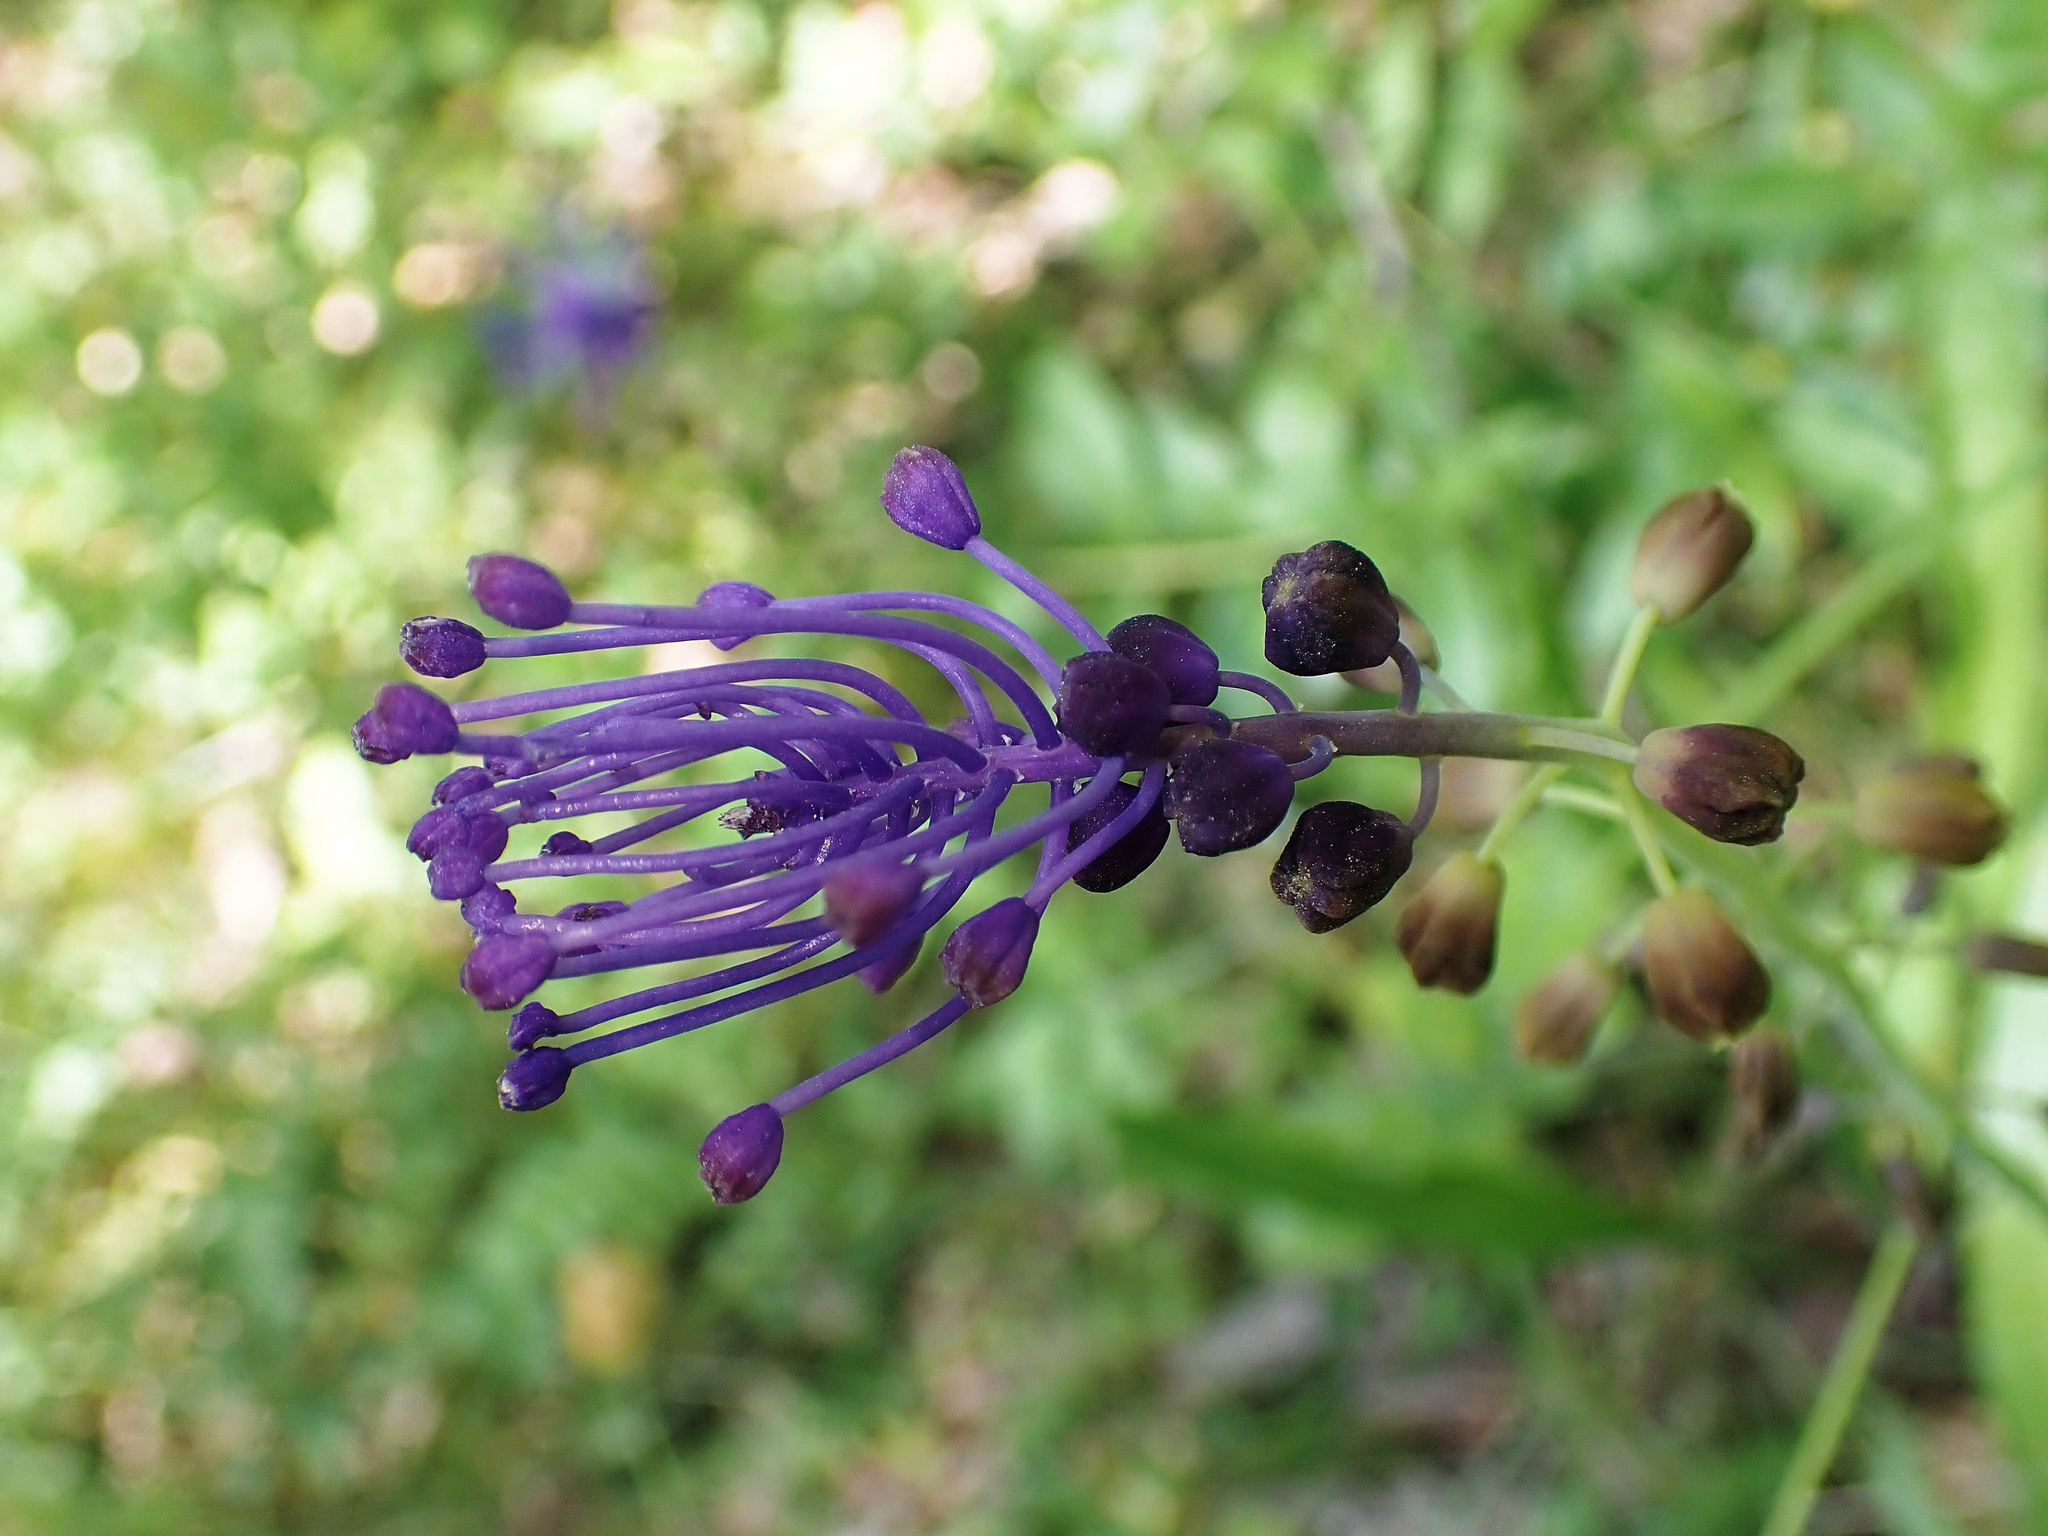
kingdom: Plantae
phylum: Tracheophyta
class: Liliopsida
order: Asparagales
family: Asparagaceae
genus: Muscari
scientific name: Muscari comosum
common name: Tassel hyacinth
